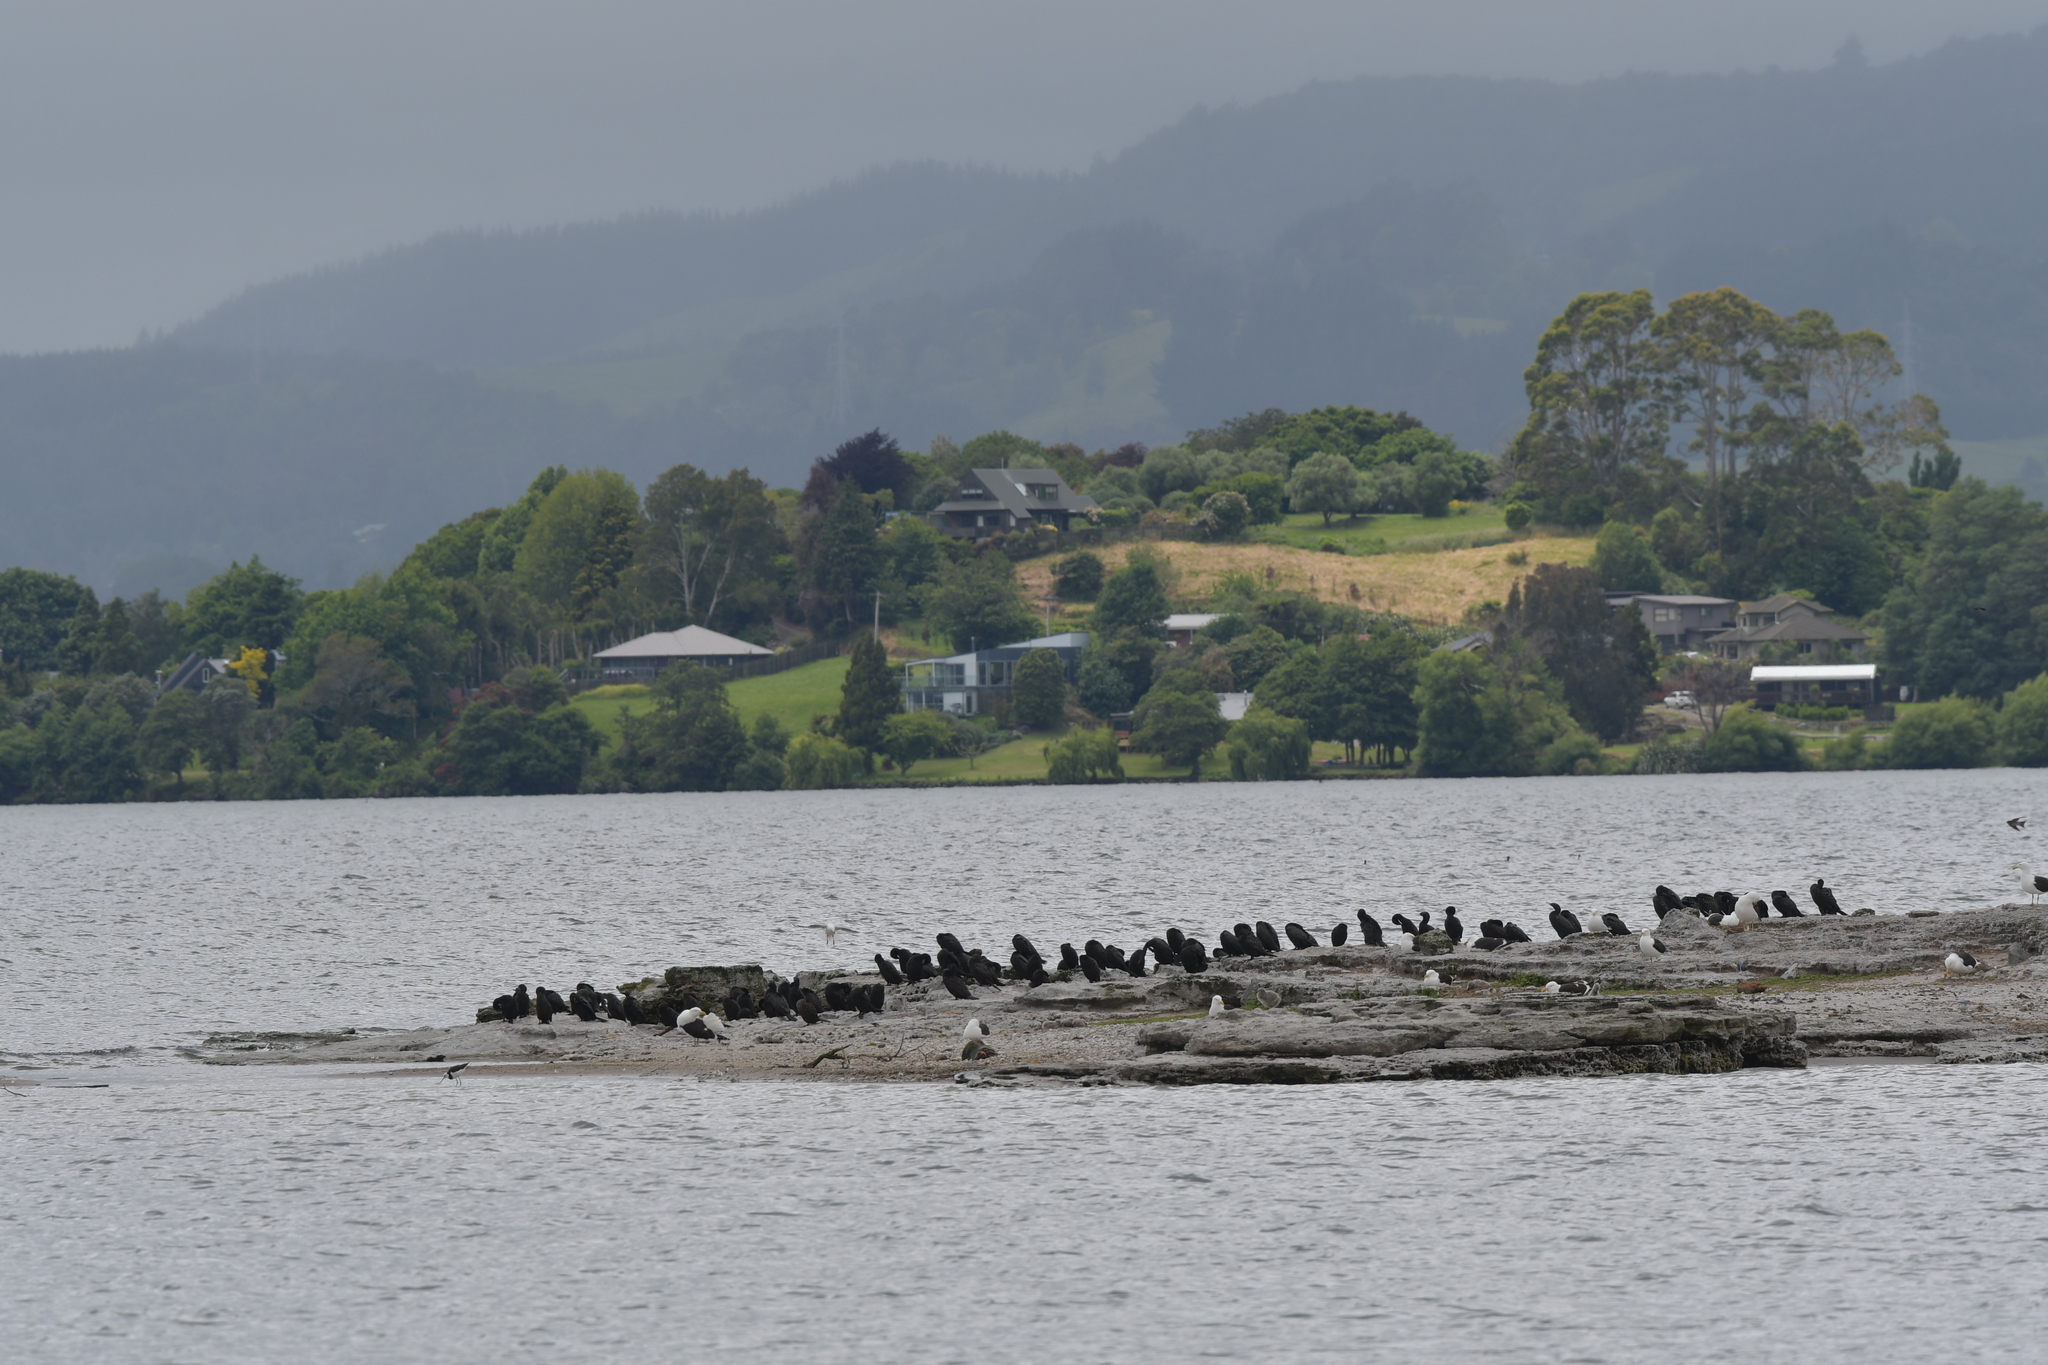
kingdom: Animalia
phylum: Chordata
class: Aves
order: Suliformes
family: Phalacrocoracidae
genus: Phalacrocorax
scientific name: Phalacrocorax sulcirostris
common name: Little black cormorant
